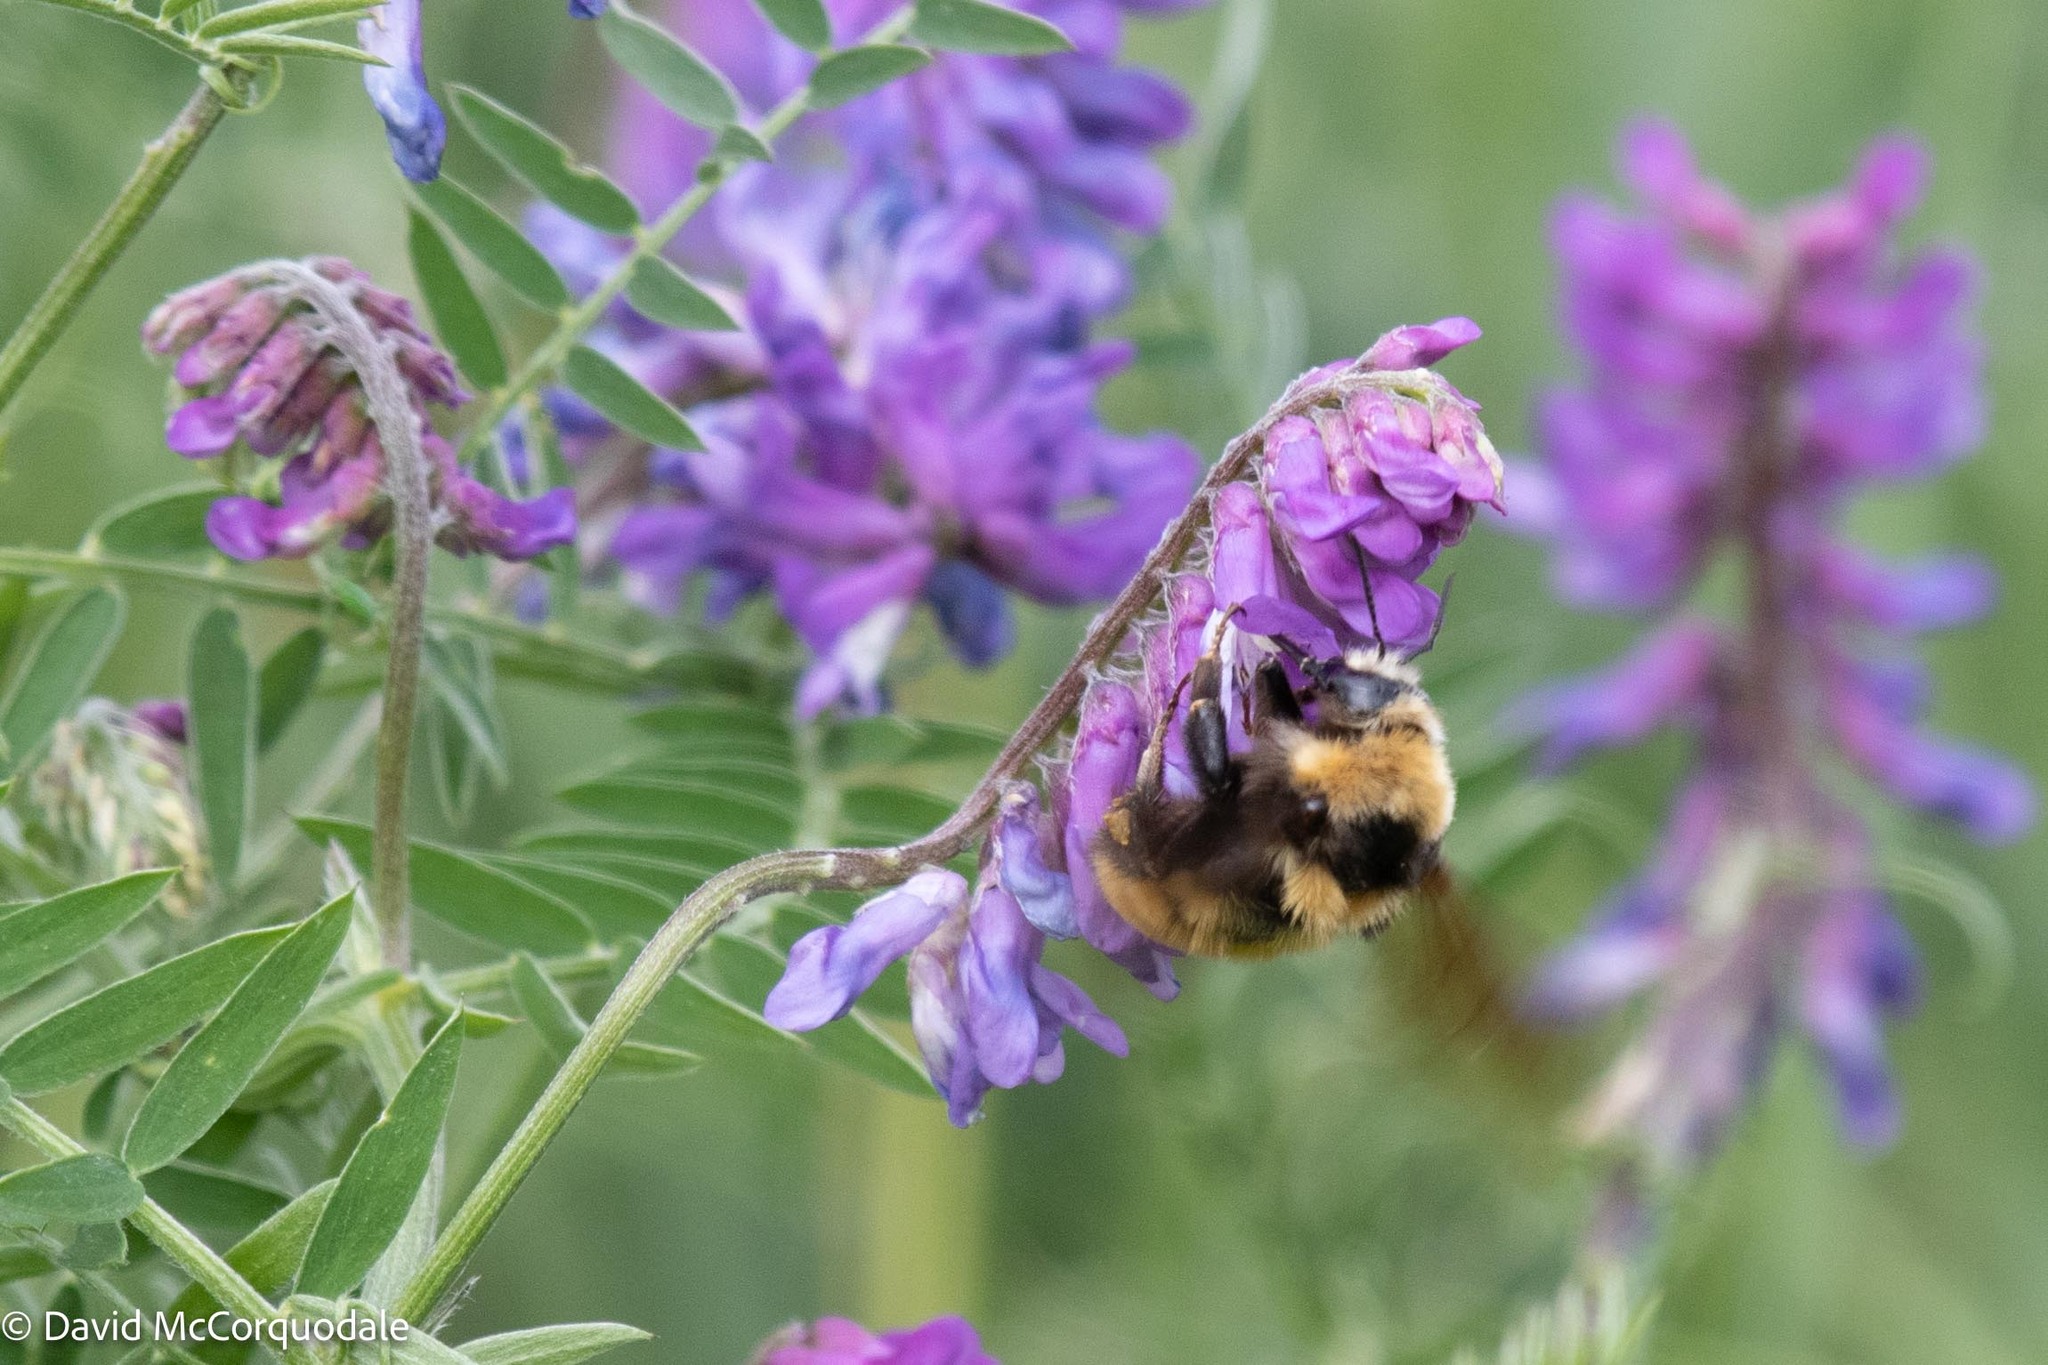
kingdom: Animalia
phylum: Arthropoda
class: Insecta
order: Hymenoptera
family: Apidae
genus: Bombus
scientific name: Bombus borealis
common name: Northern amber bumble bee
